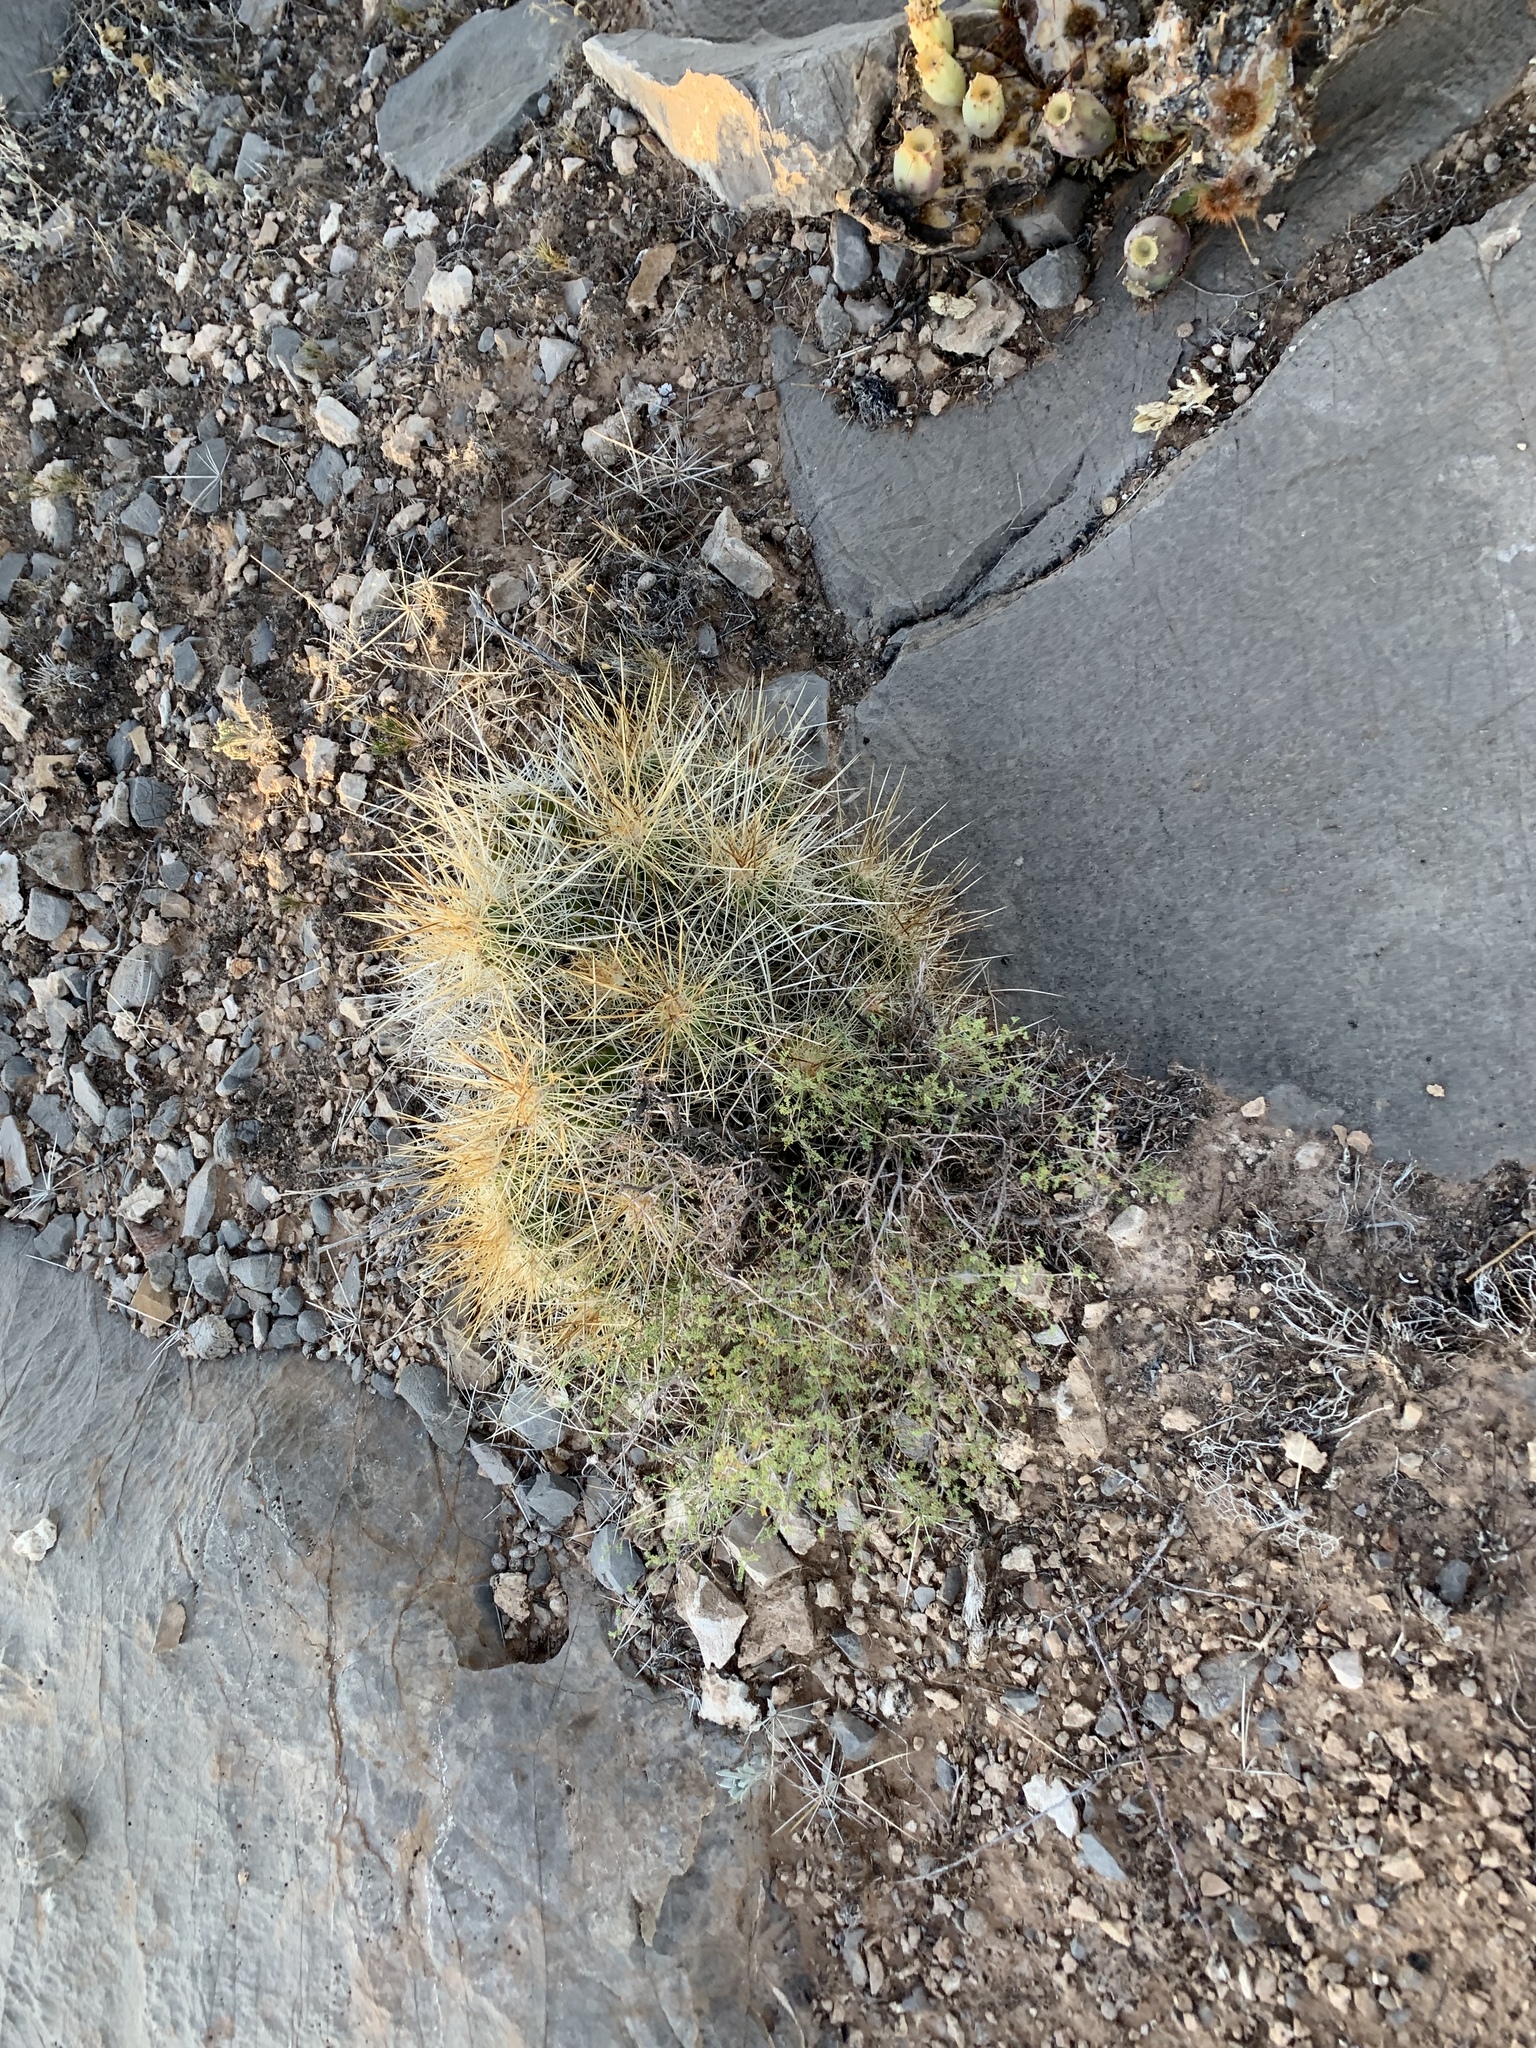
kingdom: Plantae
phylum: Tracheophyta
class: Magnoliopsida
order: Caryophyllales
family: Cactaceae
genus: Echinocereus
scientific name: Echinocereus stramineus
